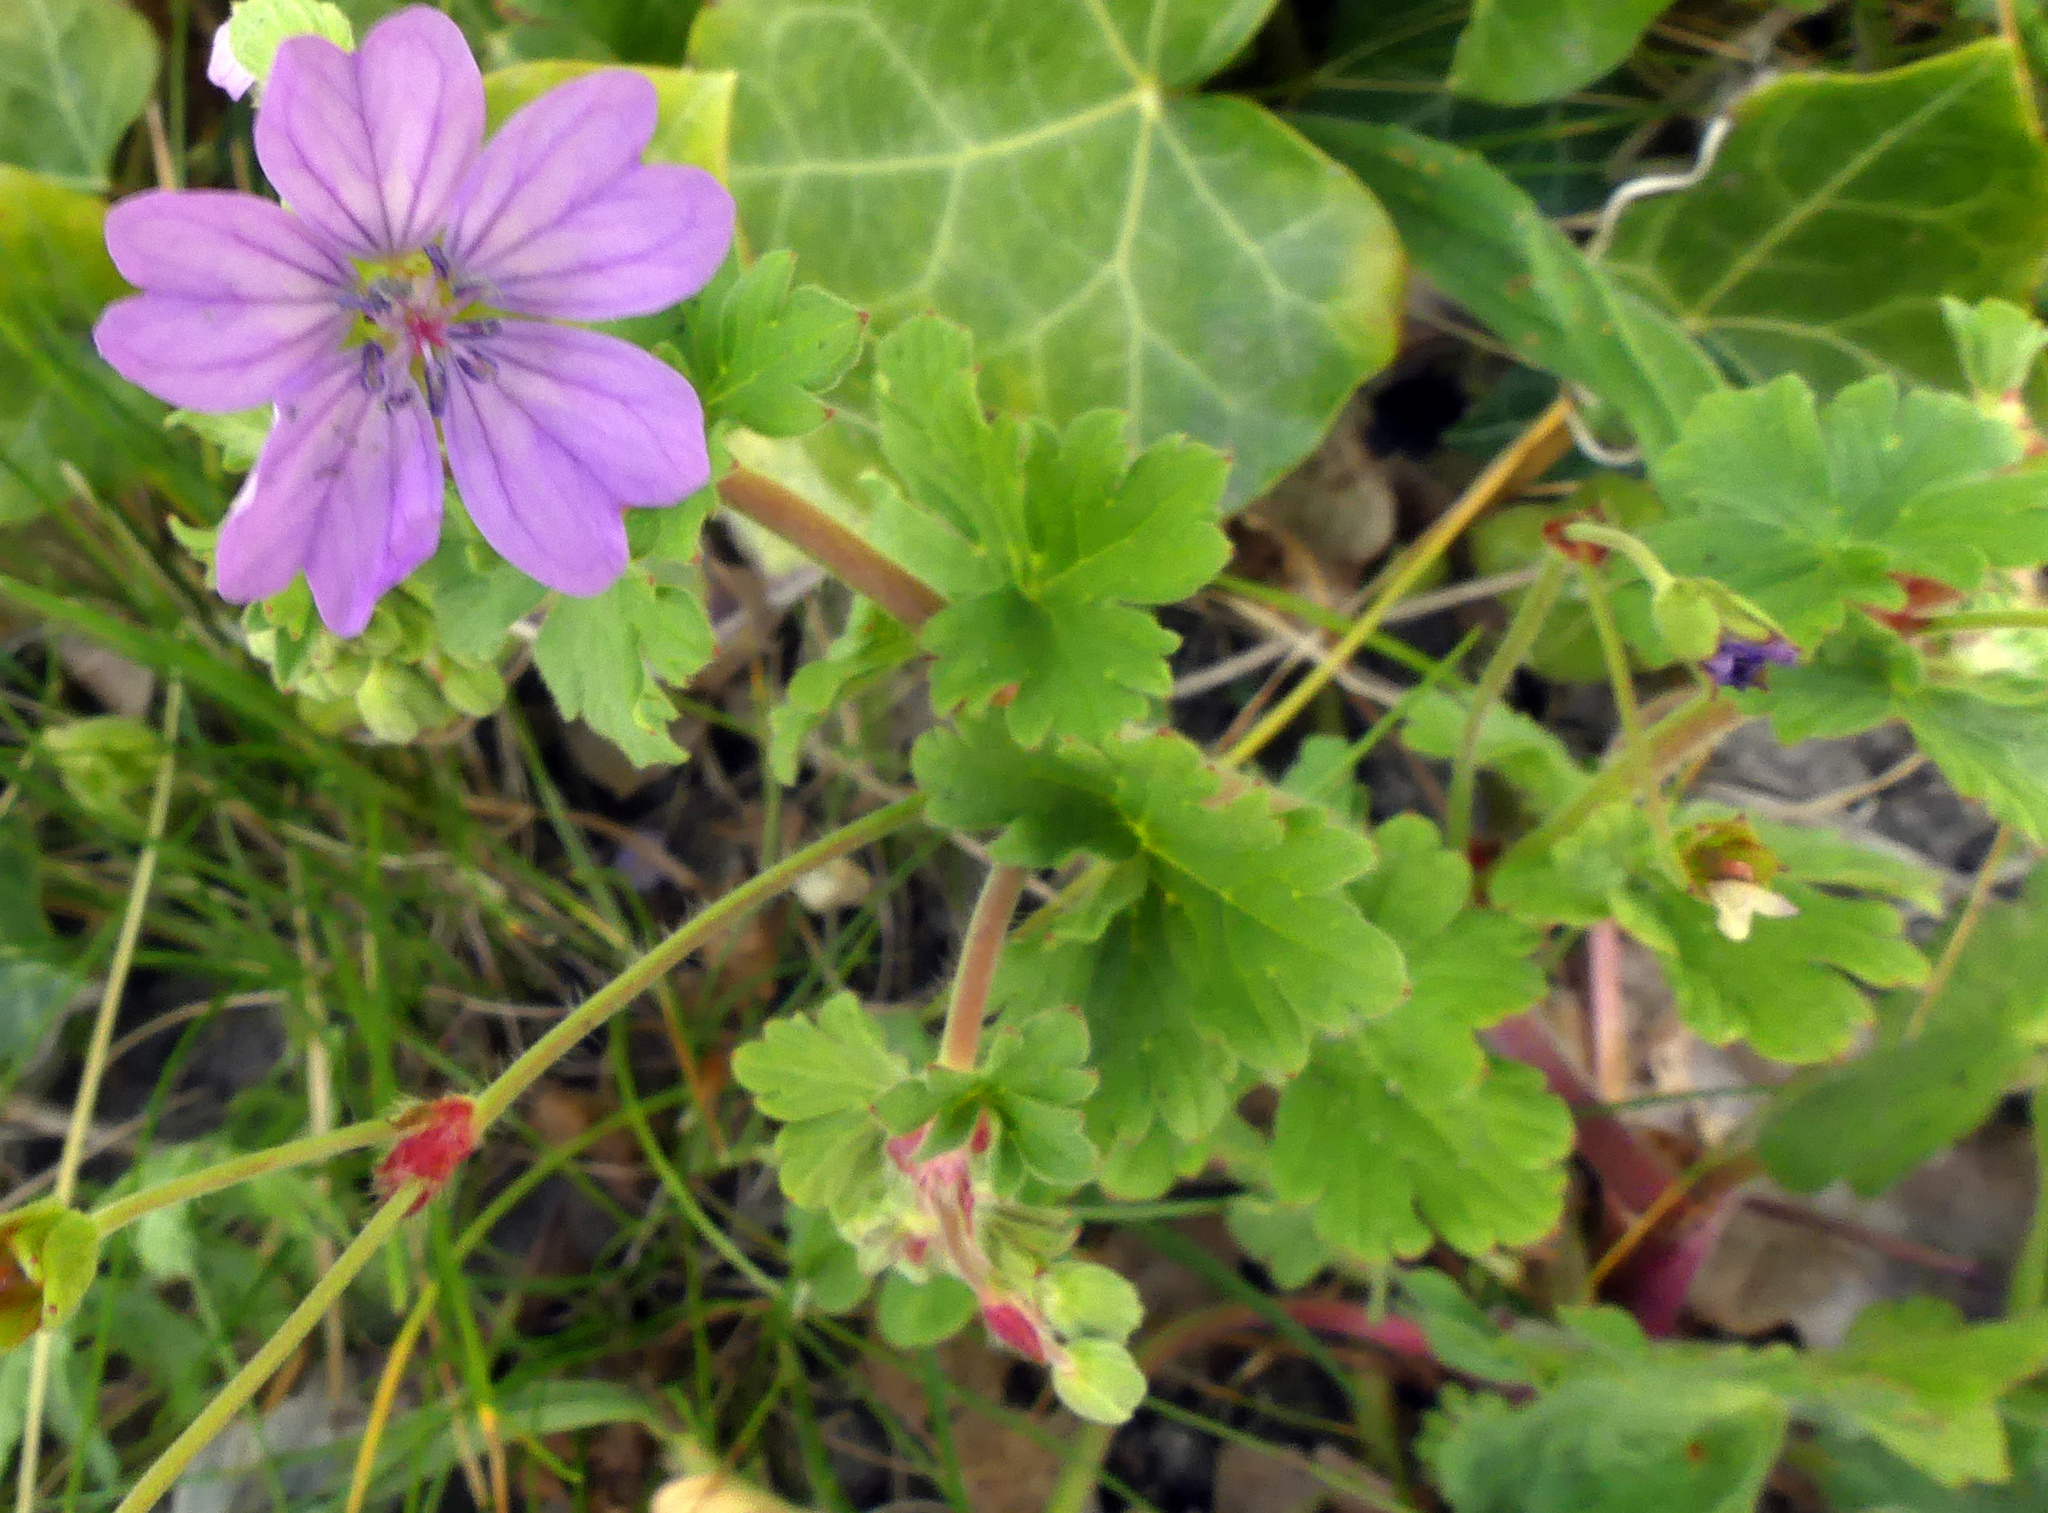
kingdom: Plantae
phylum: Tracheophyta
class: Magnoliopsida
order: Geraniales
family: Geraniaceae
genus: Geranium
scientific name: Geranium pyrenaicum
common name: Hedgerow crane's-bill
